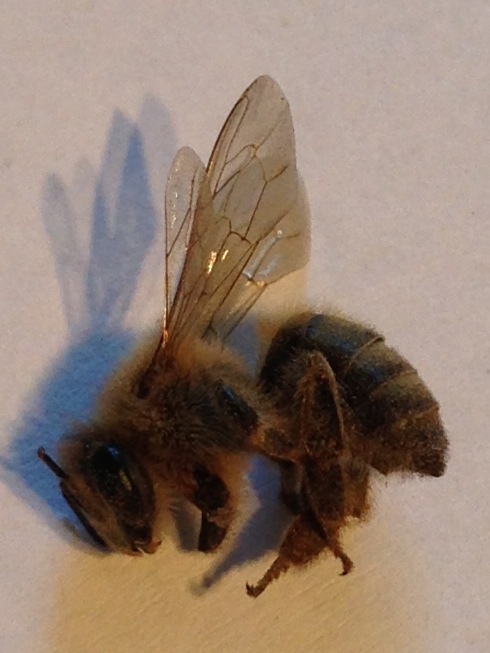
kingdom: Animalia
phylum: Arthropoda
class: Insecta
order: Hymenoptera
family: Apidae
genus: Apis
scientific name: Apis mellifera
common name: Honey bee
